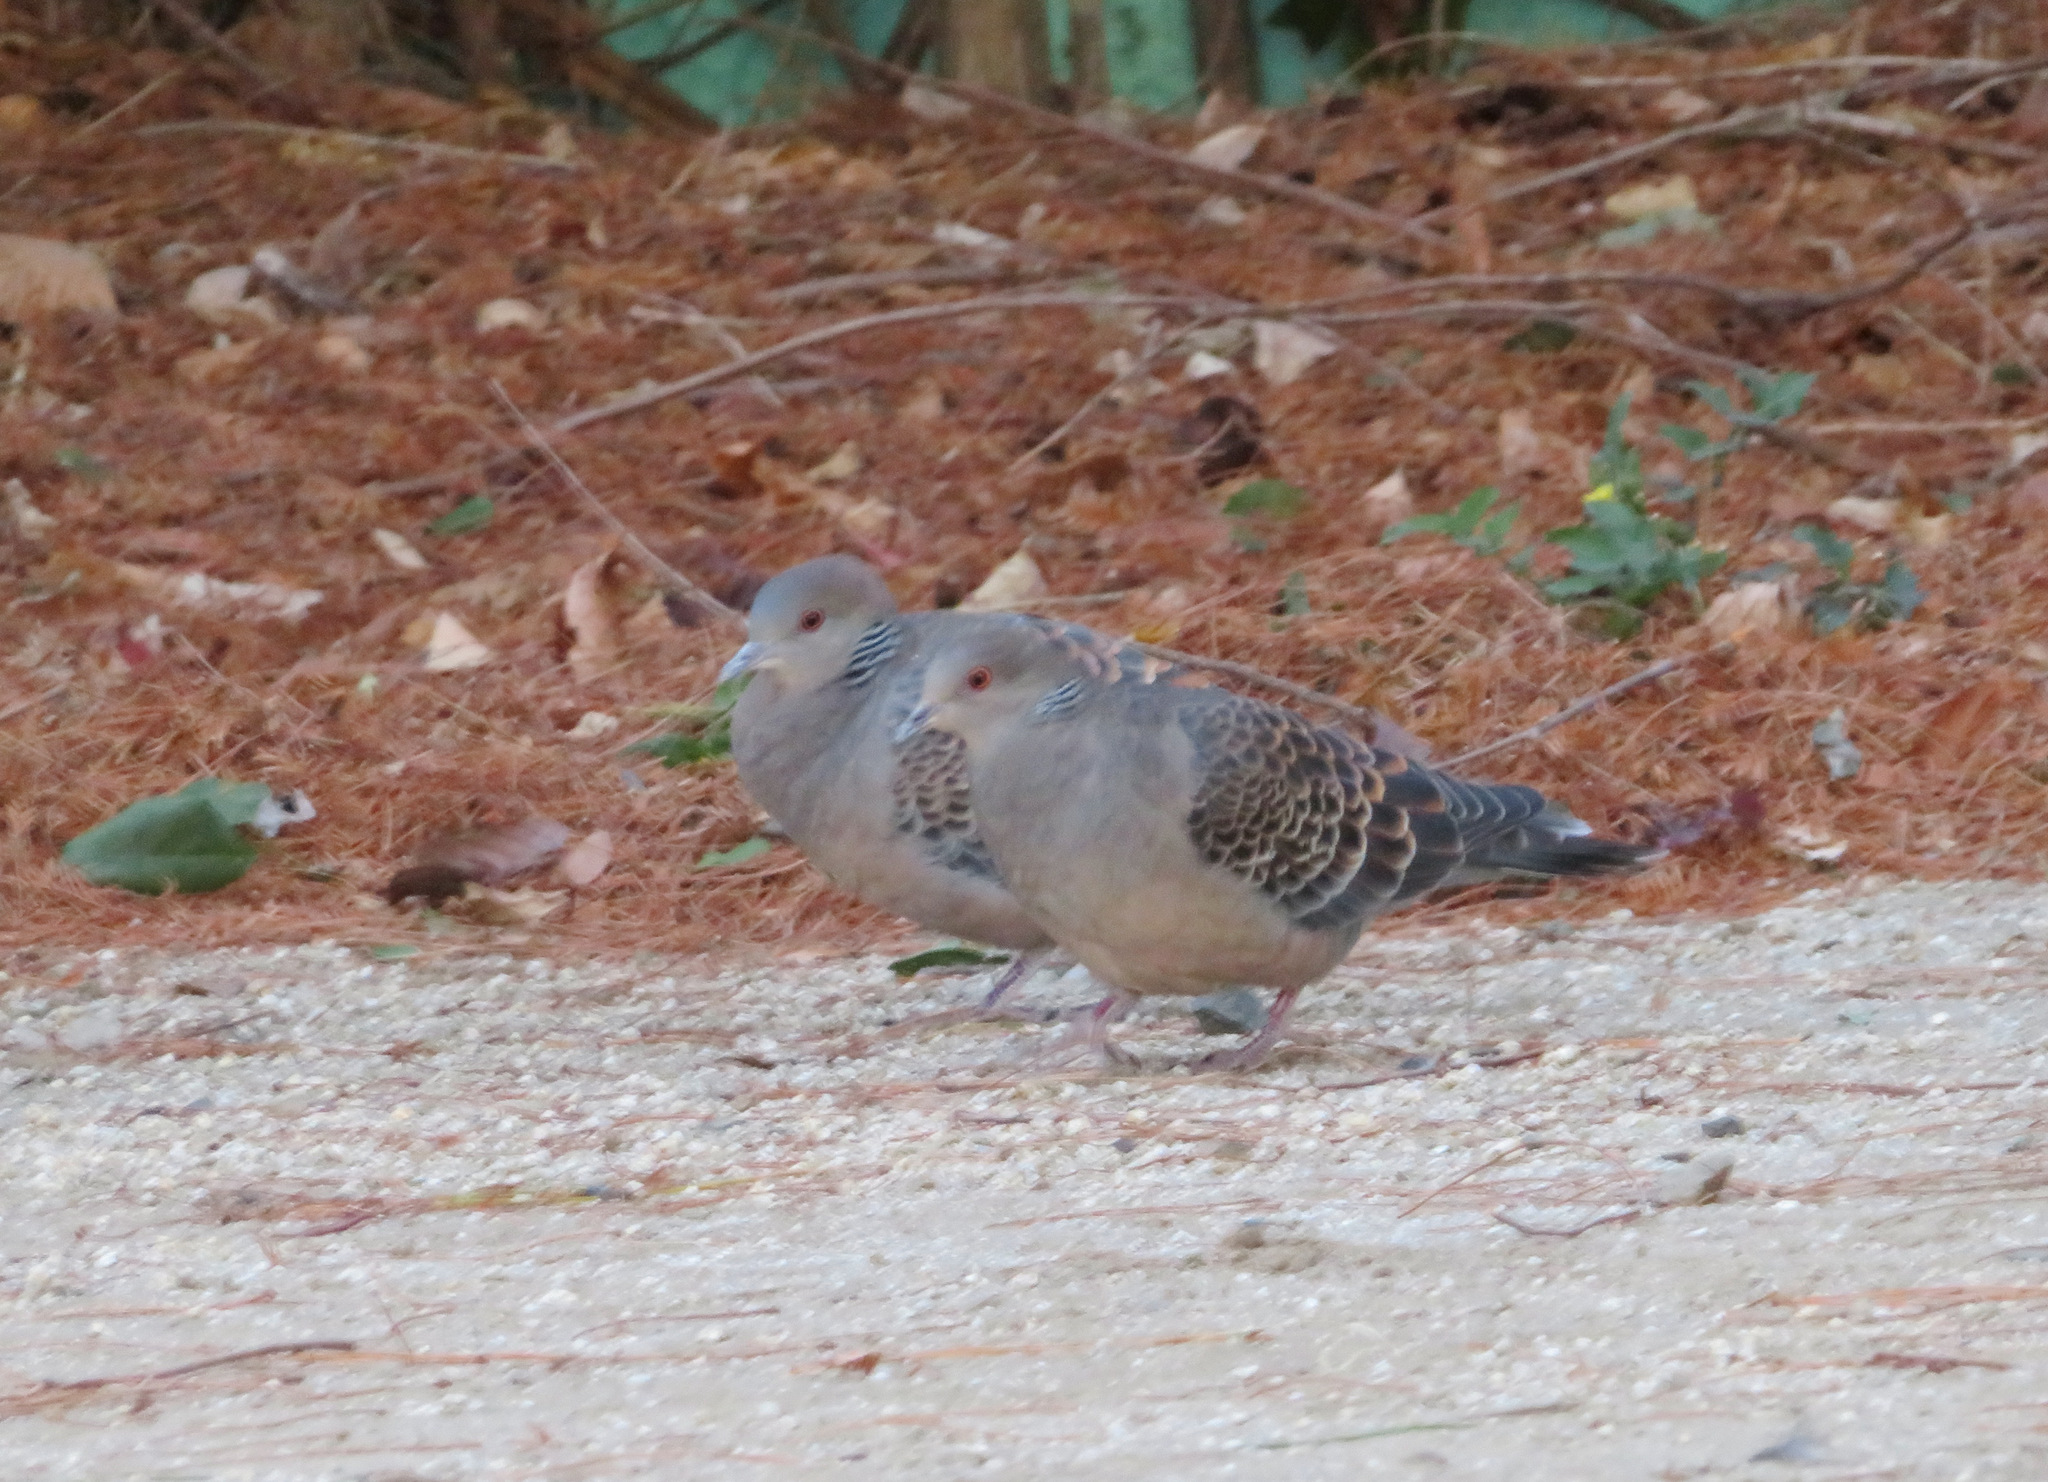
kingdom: Animalia
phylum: Chordata
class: Aves
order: Columbiformes
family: Columbidae
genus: Streptopelia
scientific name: Streptopelia orientalis
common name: Oriental turtle dove
